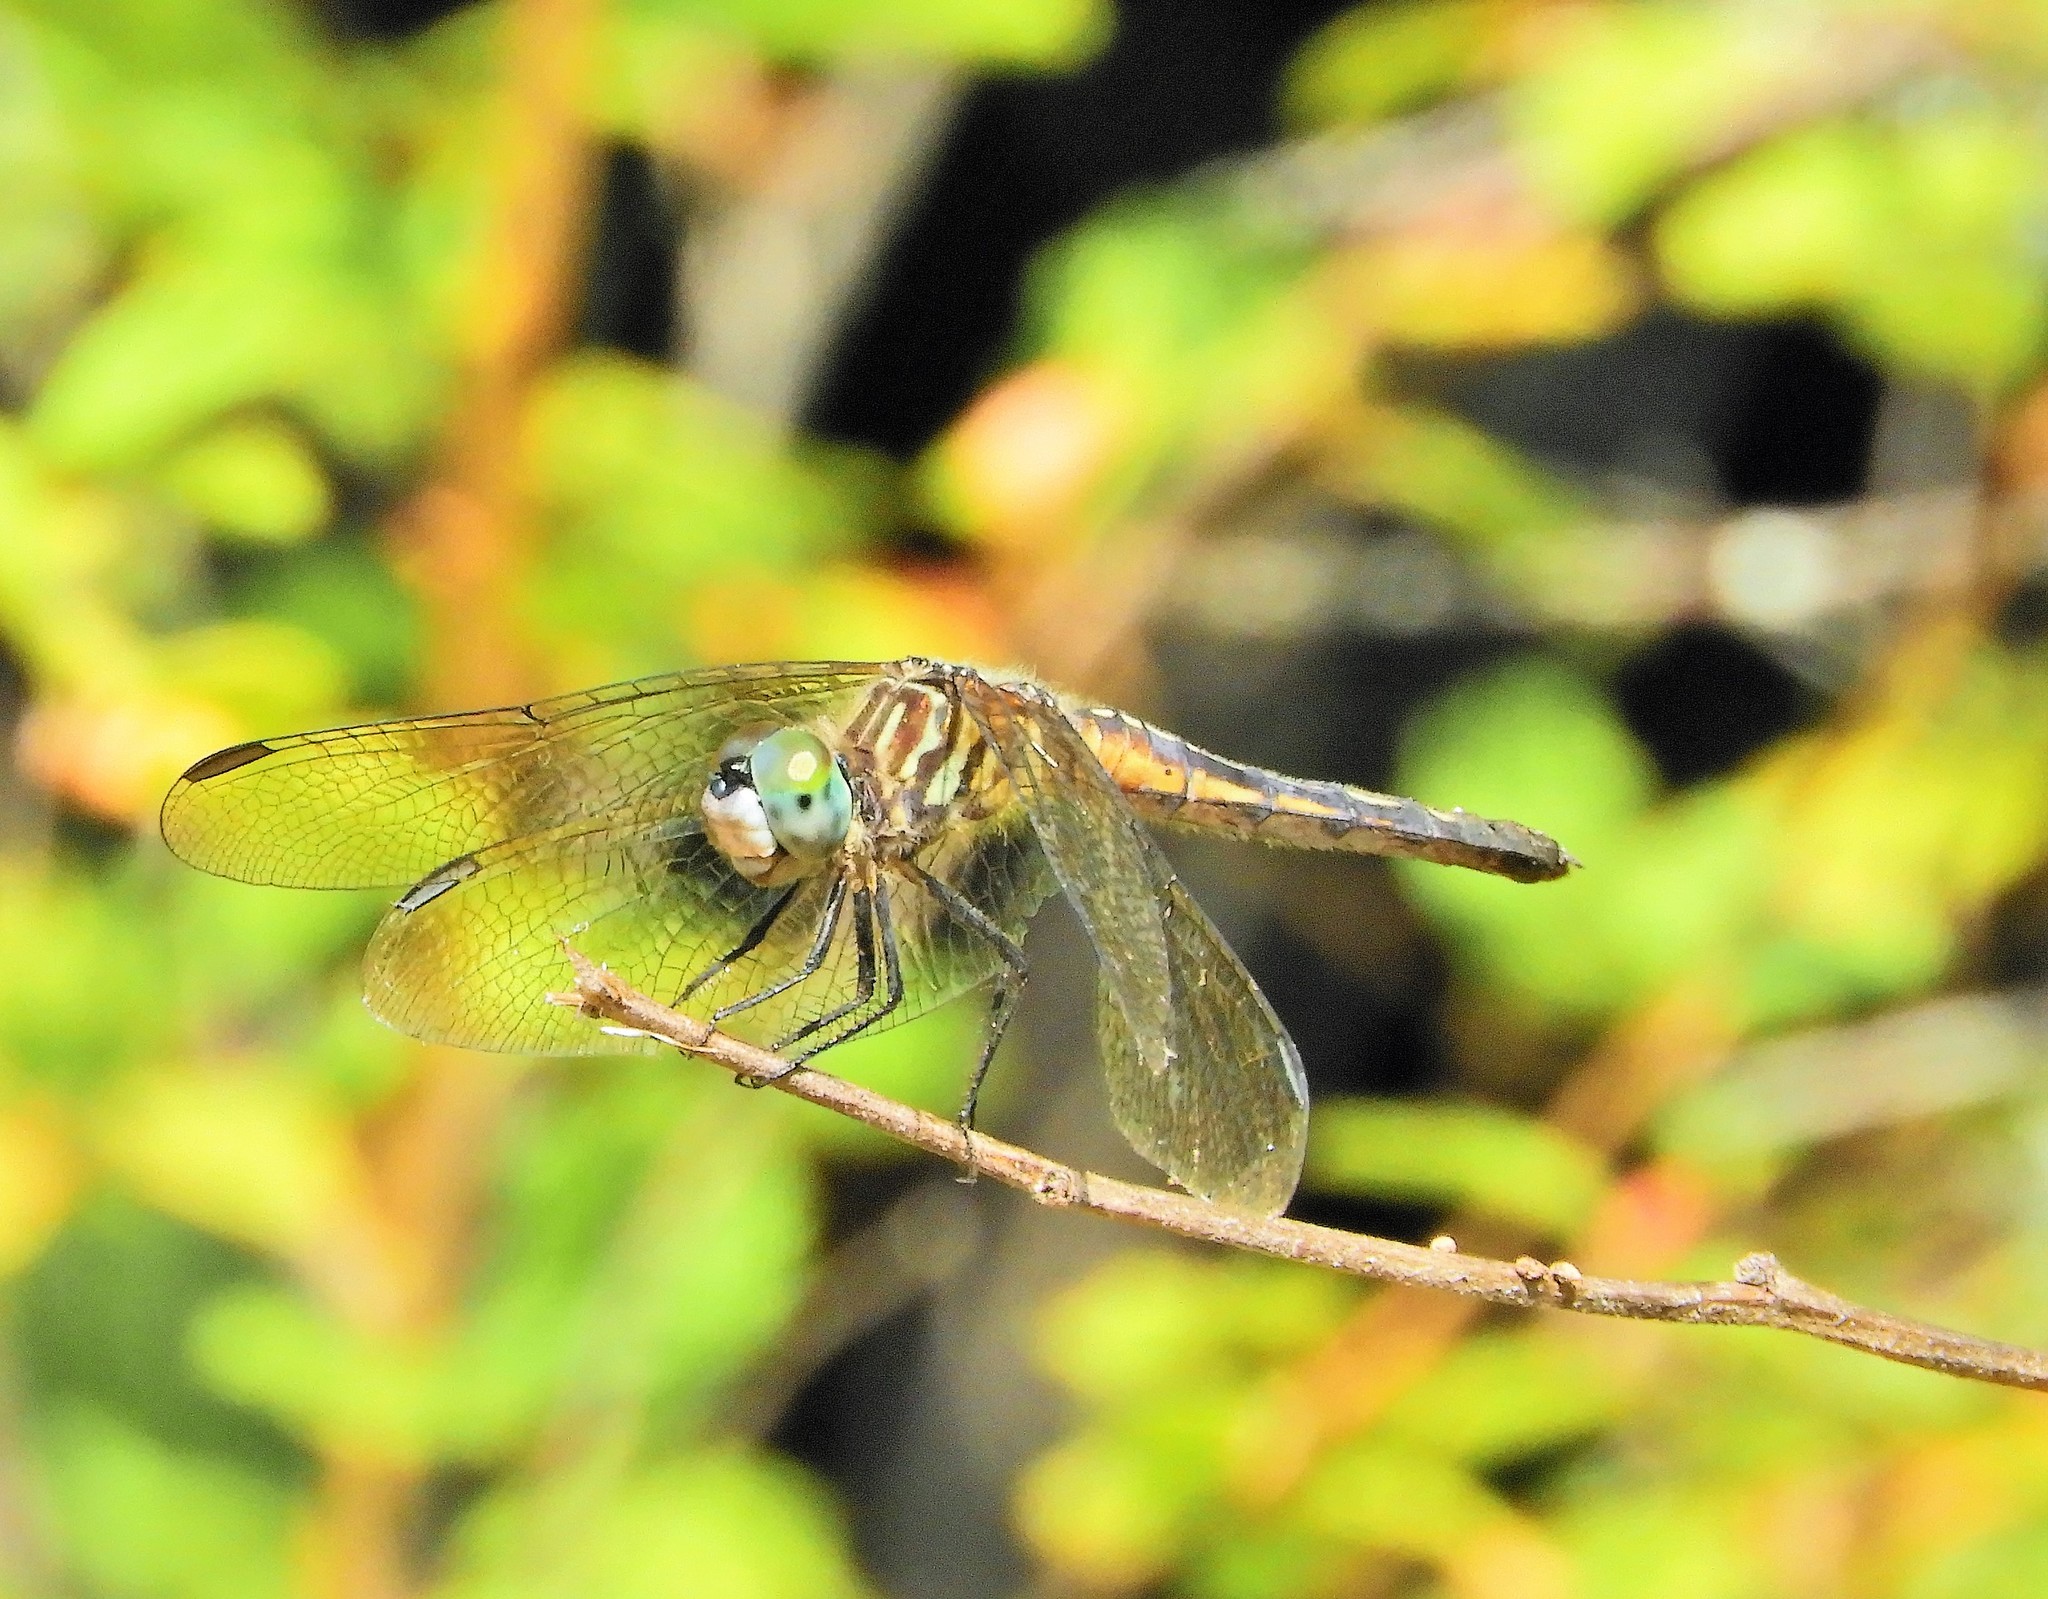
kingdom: Animalia
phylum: Arthropoda
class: Insecta
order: Odonata
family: Libellulidae
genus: Pachydiplax
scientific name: Pachydiplax longipennis
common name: Blue dasher
